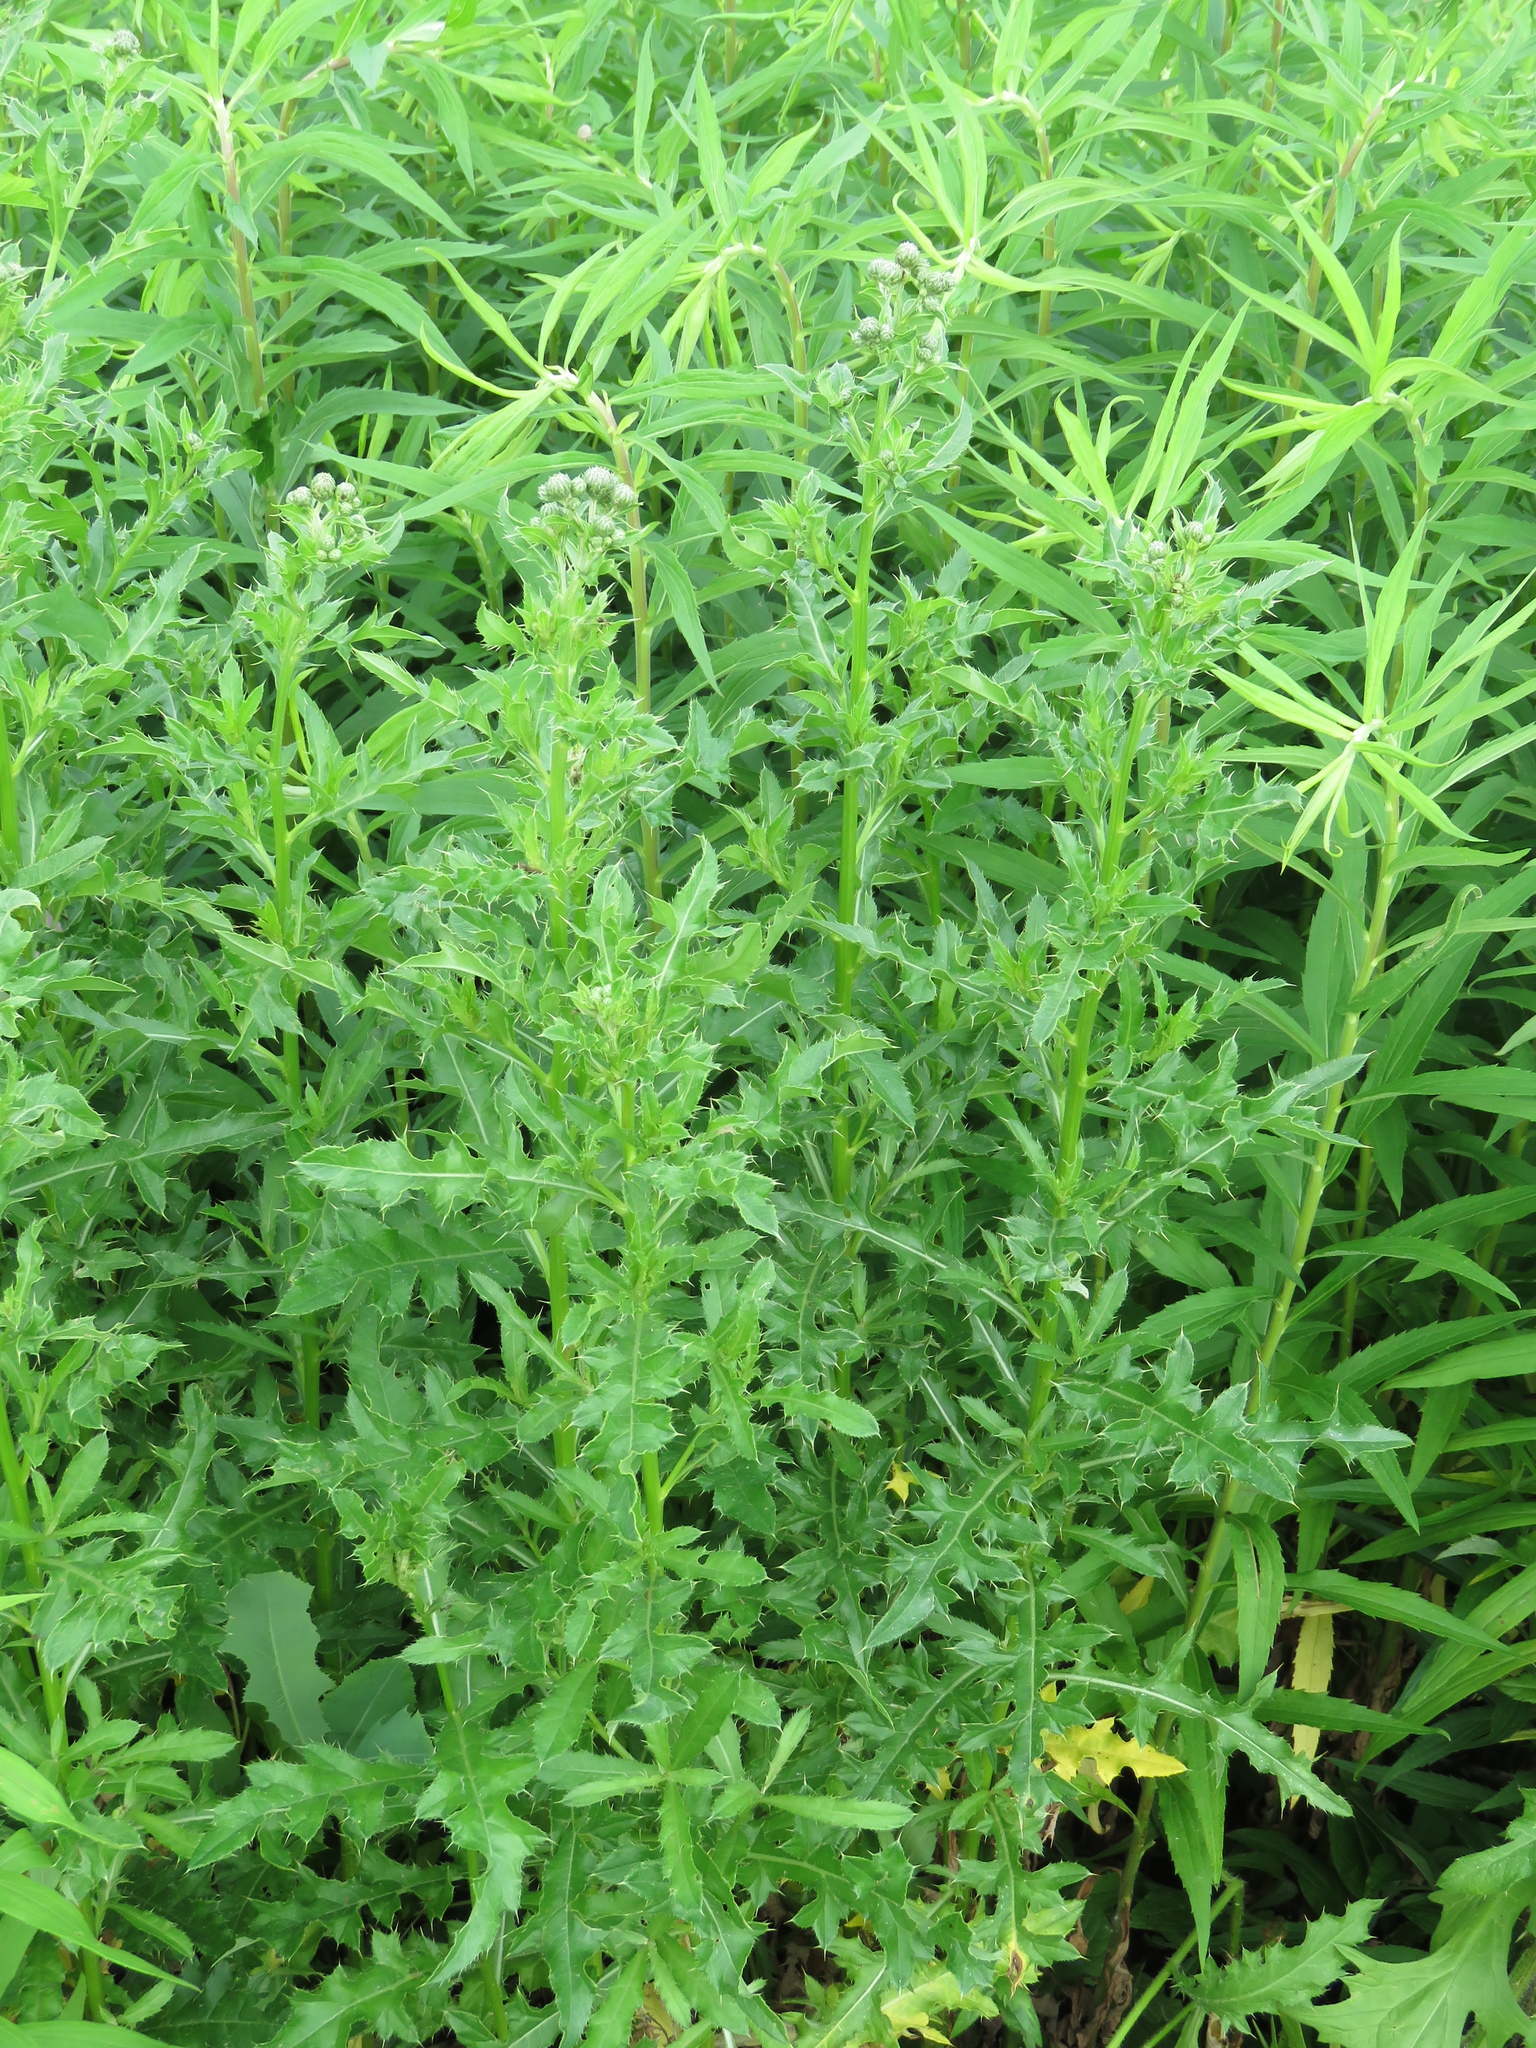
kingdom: Plantae
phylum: Tracheophyta
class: Magnoliopsida
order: Asterales
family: Asteraceae
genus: Cirsium
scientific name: Cirsium arvense
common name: Creeping thistle
